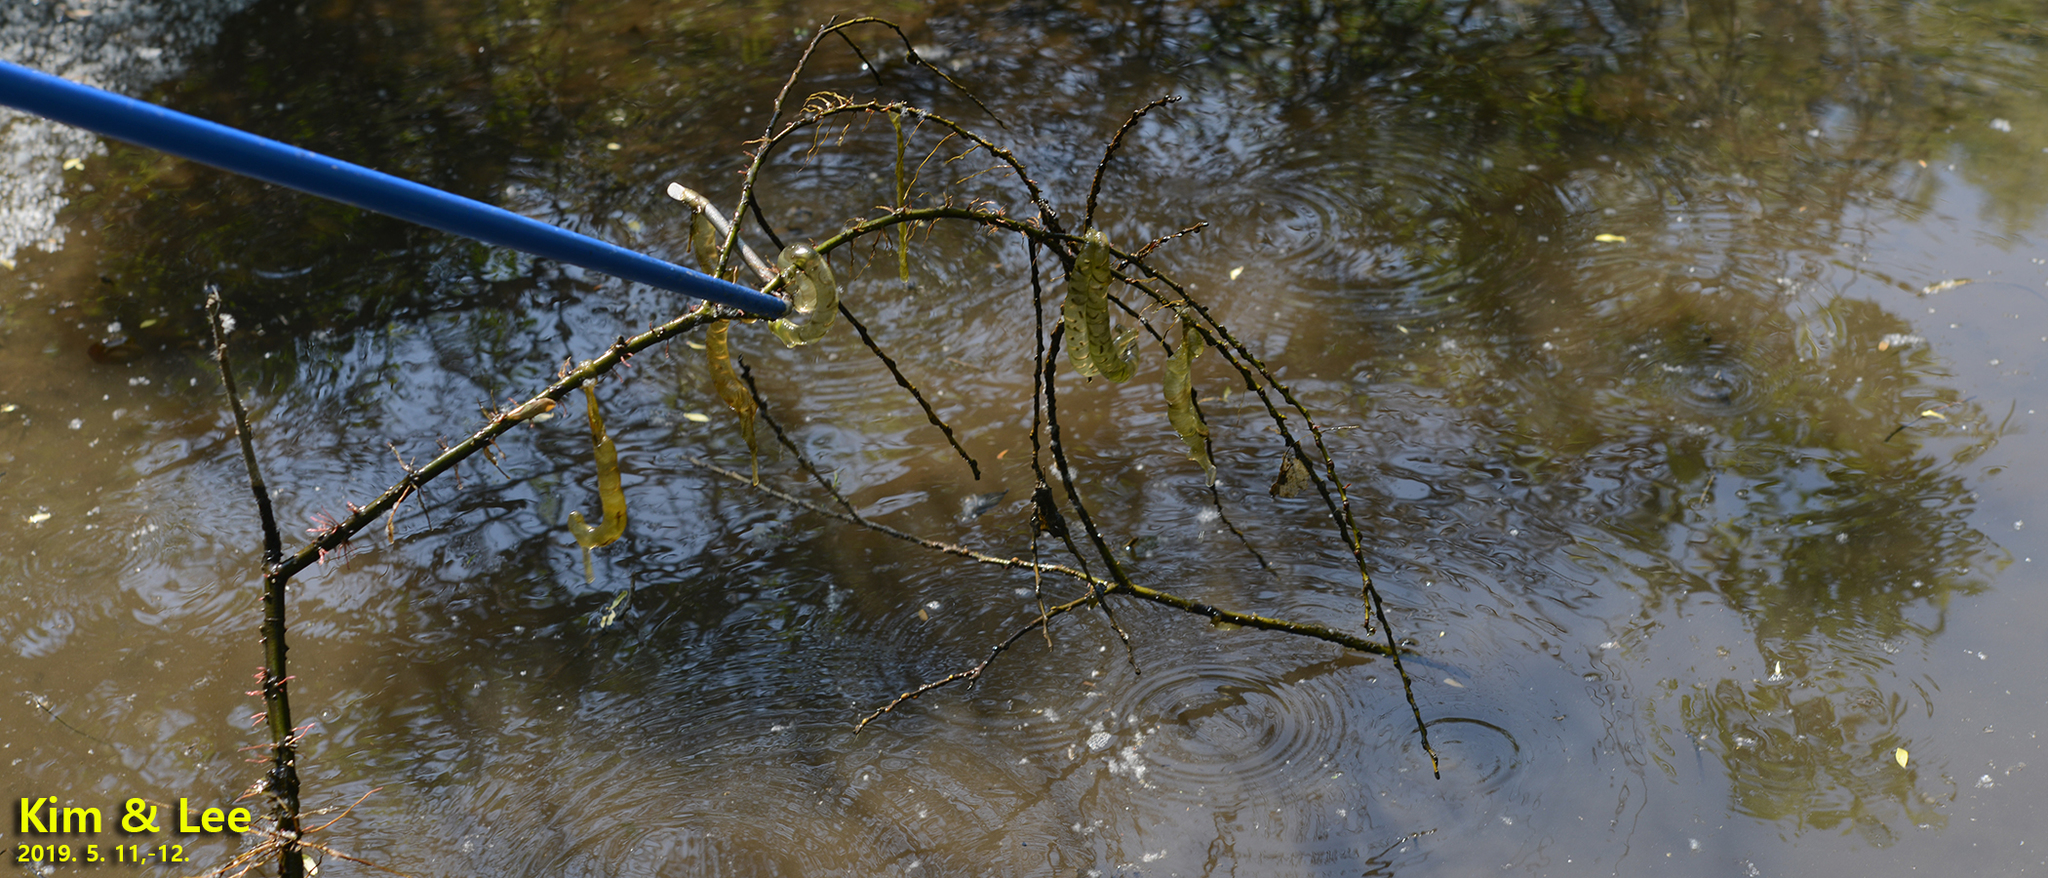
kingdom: Animalia
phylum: Chordata
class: Amphibia
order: Caudata
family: Hynobiidae
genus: Hynobius
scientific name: Hynobius leechii
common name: Gensan salamander
